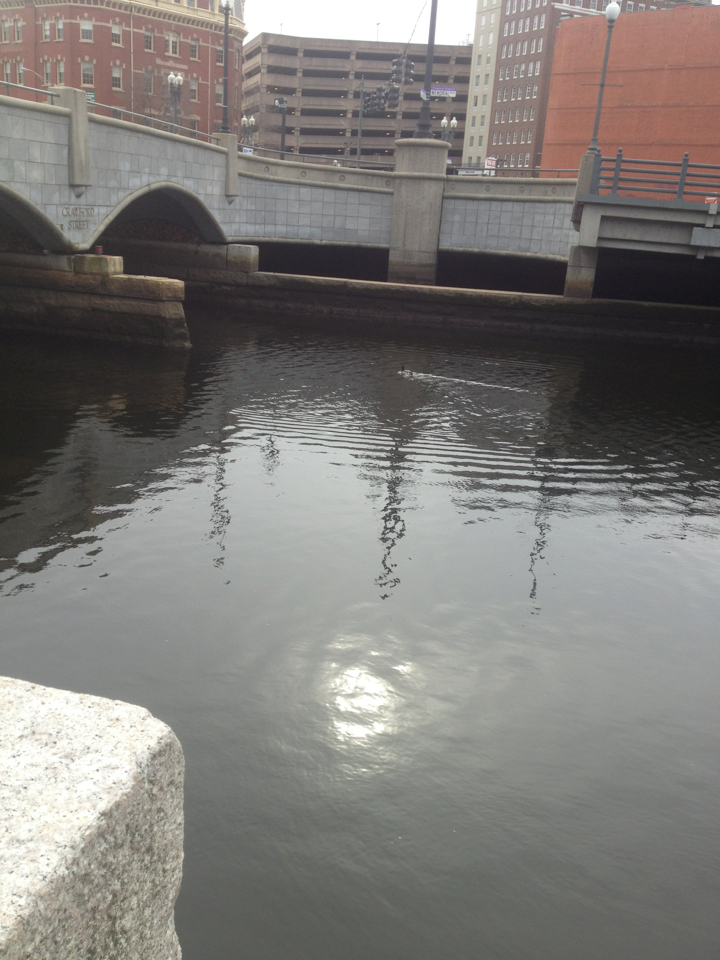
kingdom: Animalia
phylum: Chordata
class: Aves
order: Anseriformes
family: Anatidae
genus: Anas
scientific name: Anas platyrhynchos
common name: Mallard
